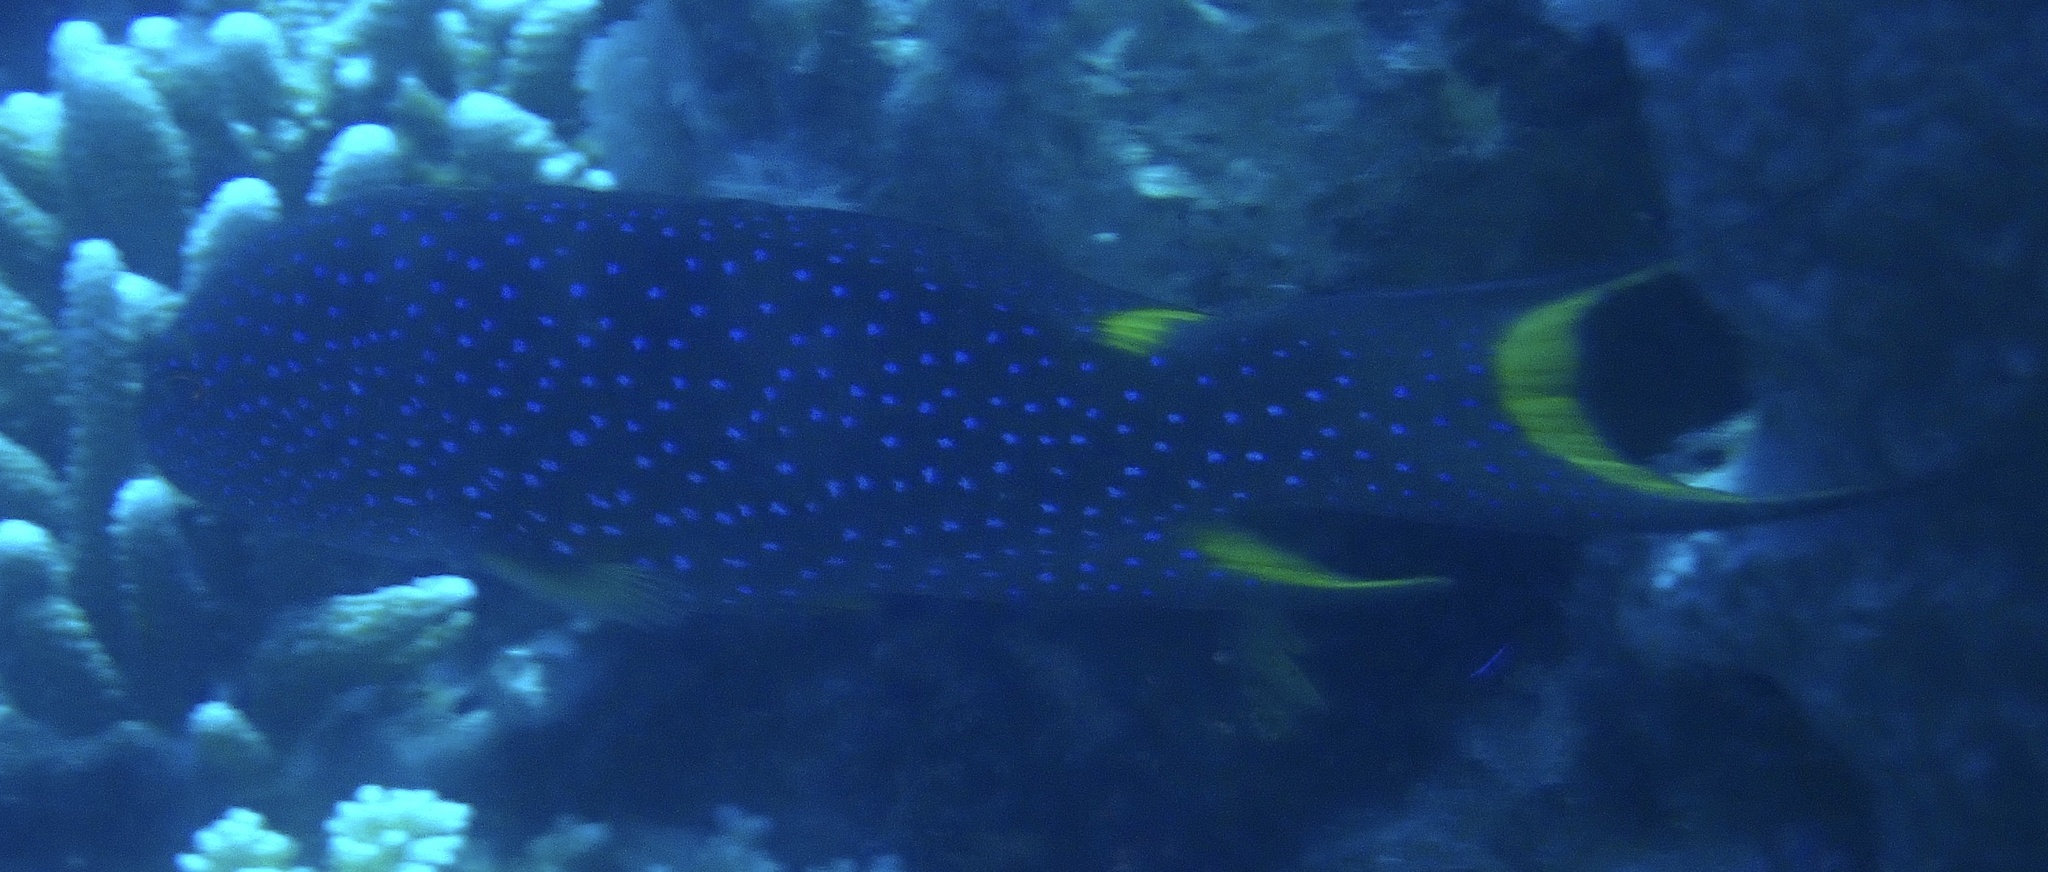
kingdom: Animalia
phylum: Chordata
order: Perciformes
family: Serranidae
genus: Variola
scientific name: Variola louti
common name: Yellow-edged lyretail
